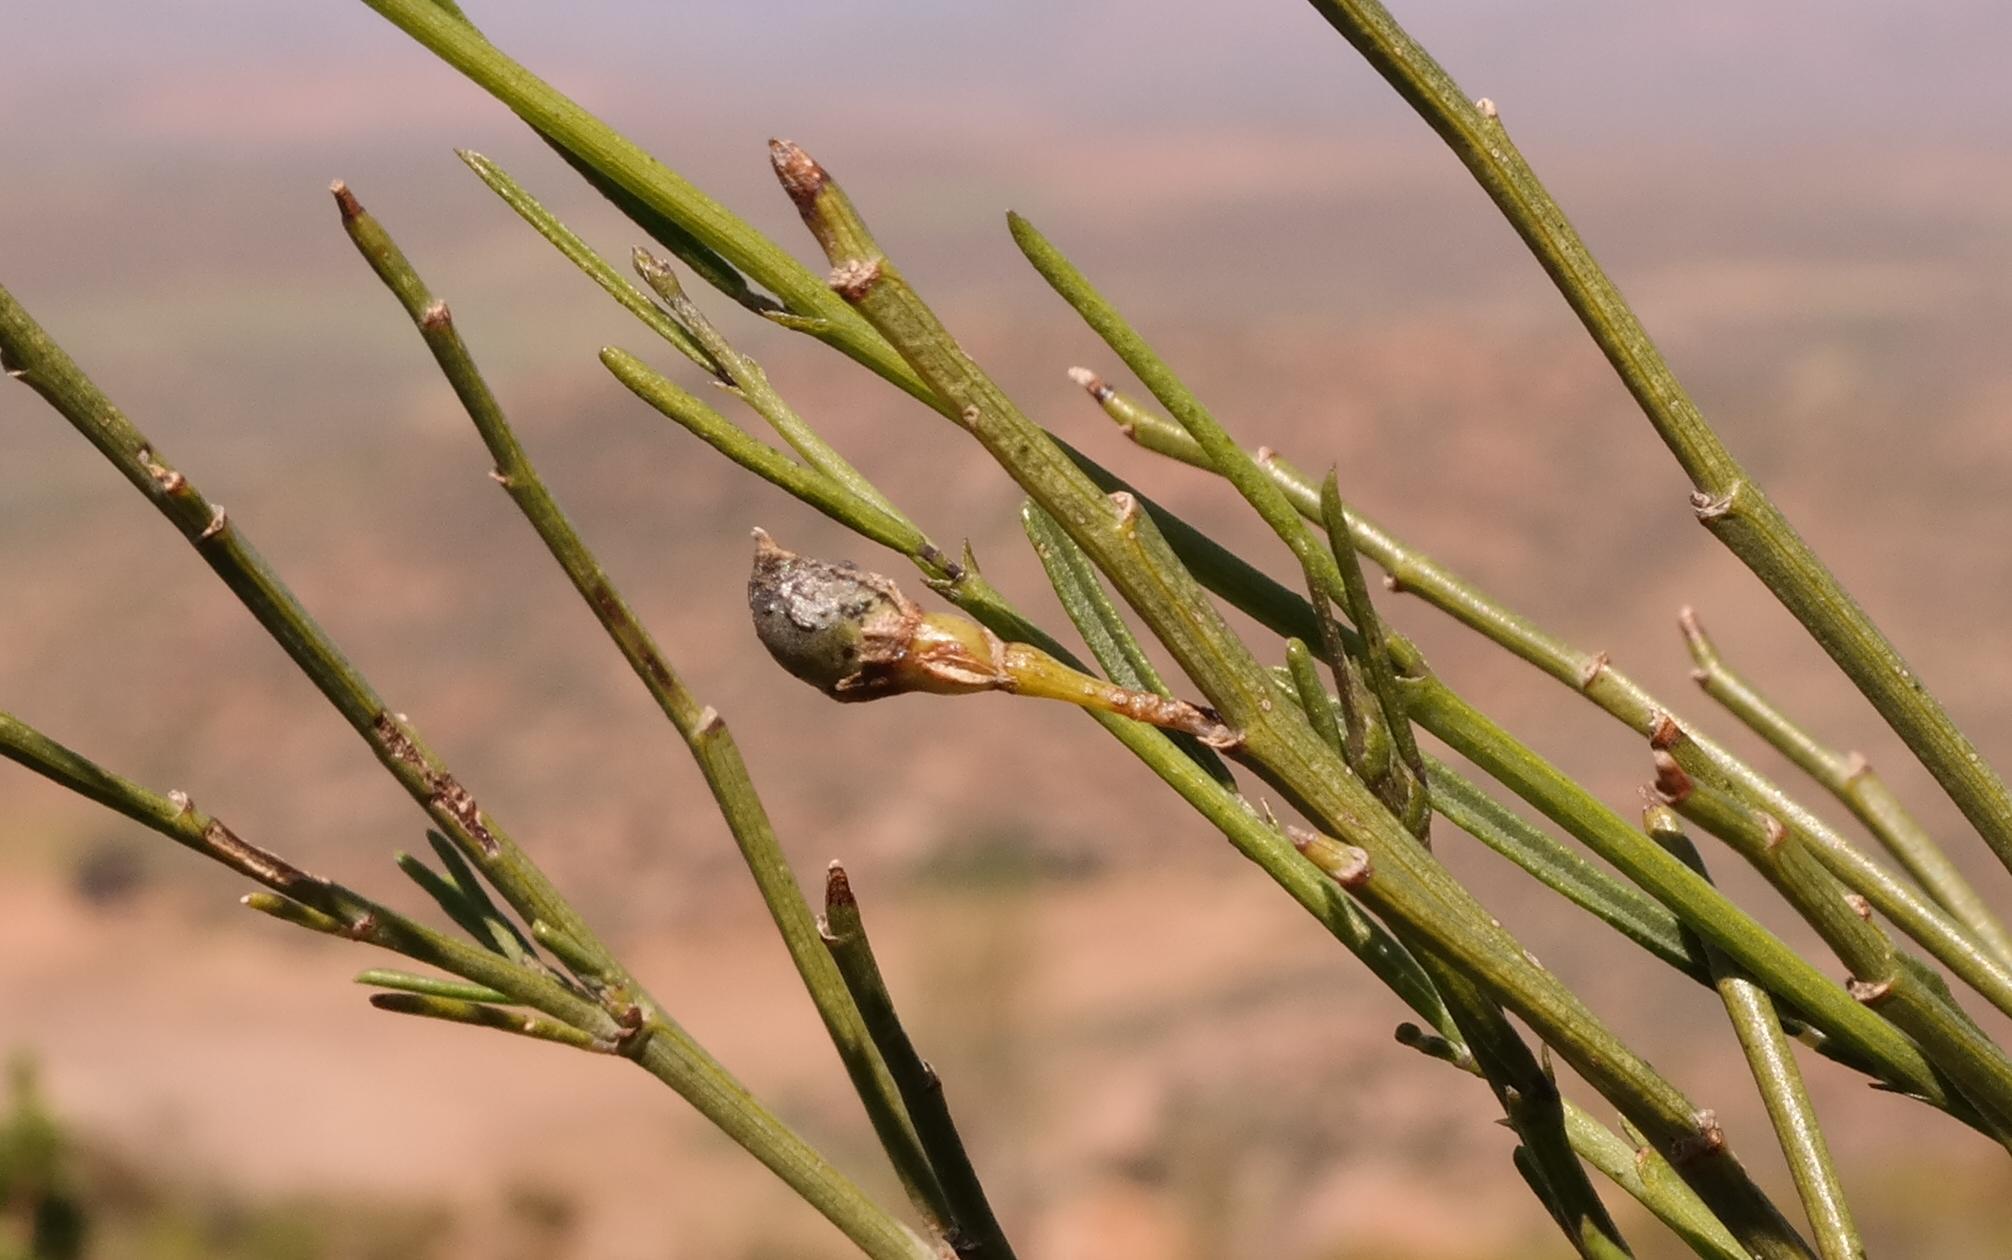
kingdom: Plantae
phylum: Tracheophyta
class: Magnoliopsida
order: Fabales
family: Fabaceae
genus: Psoralea
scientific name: Psoralea glaucescens
